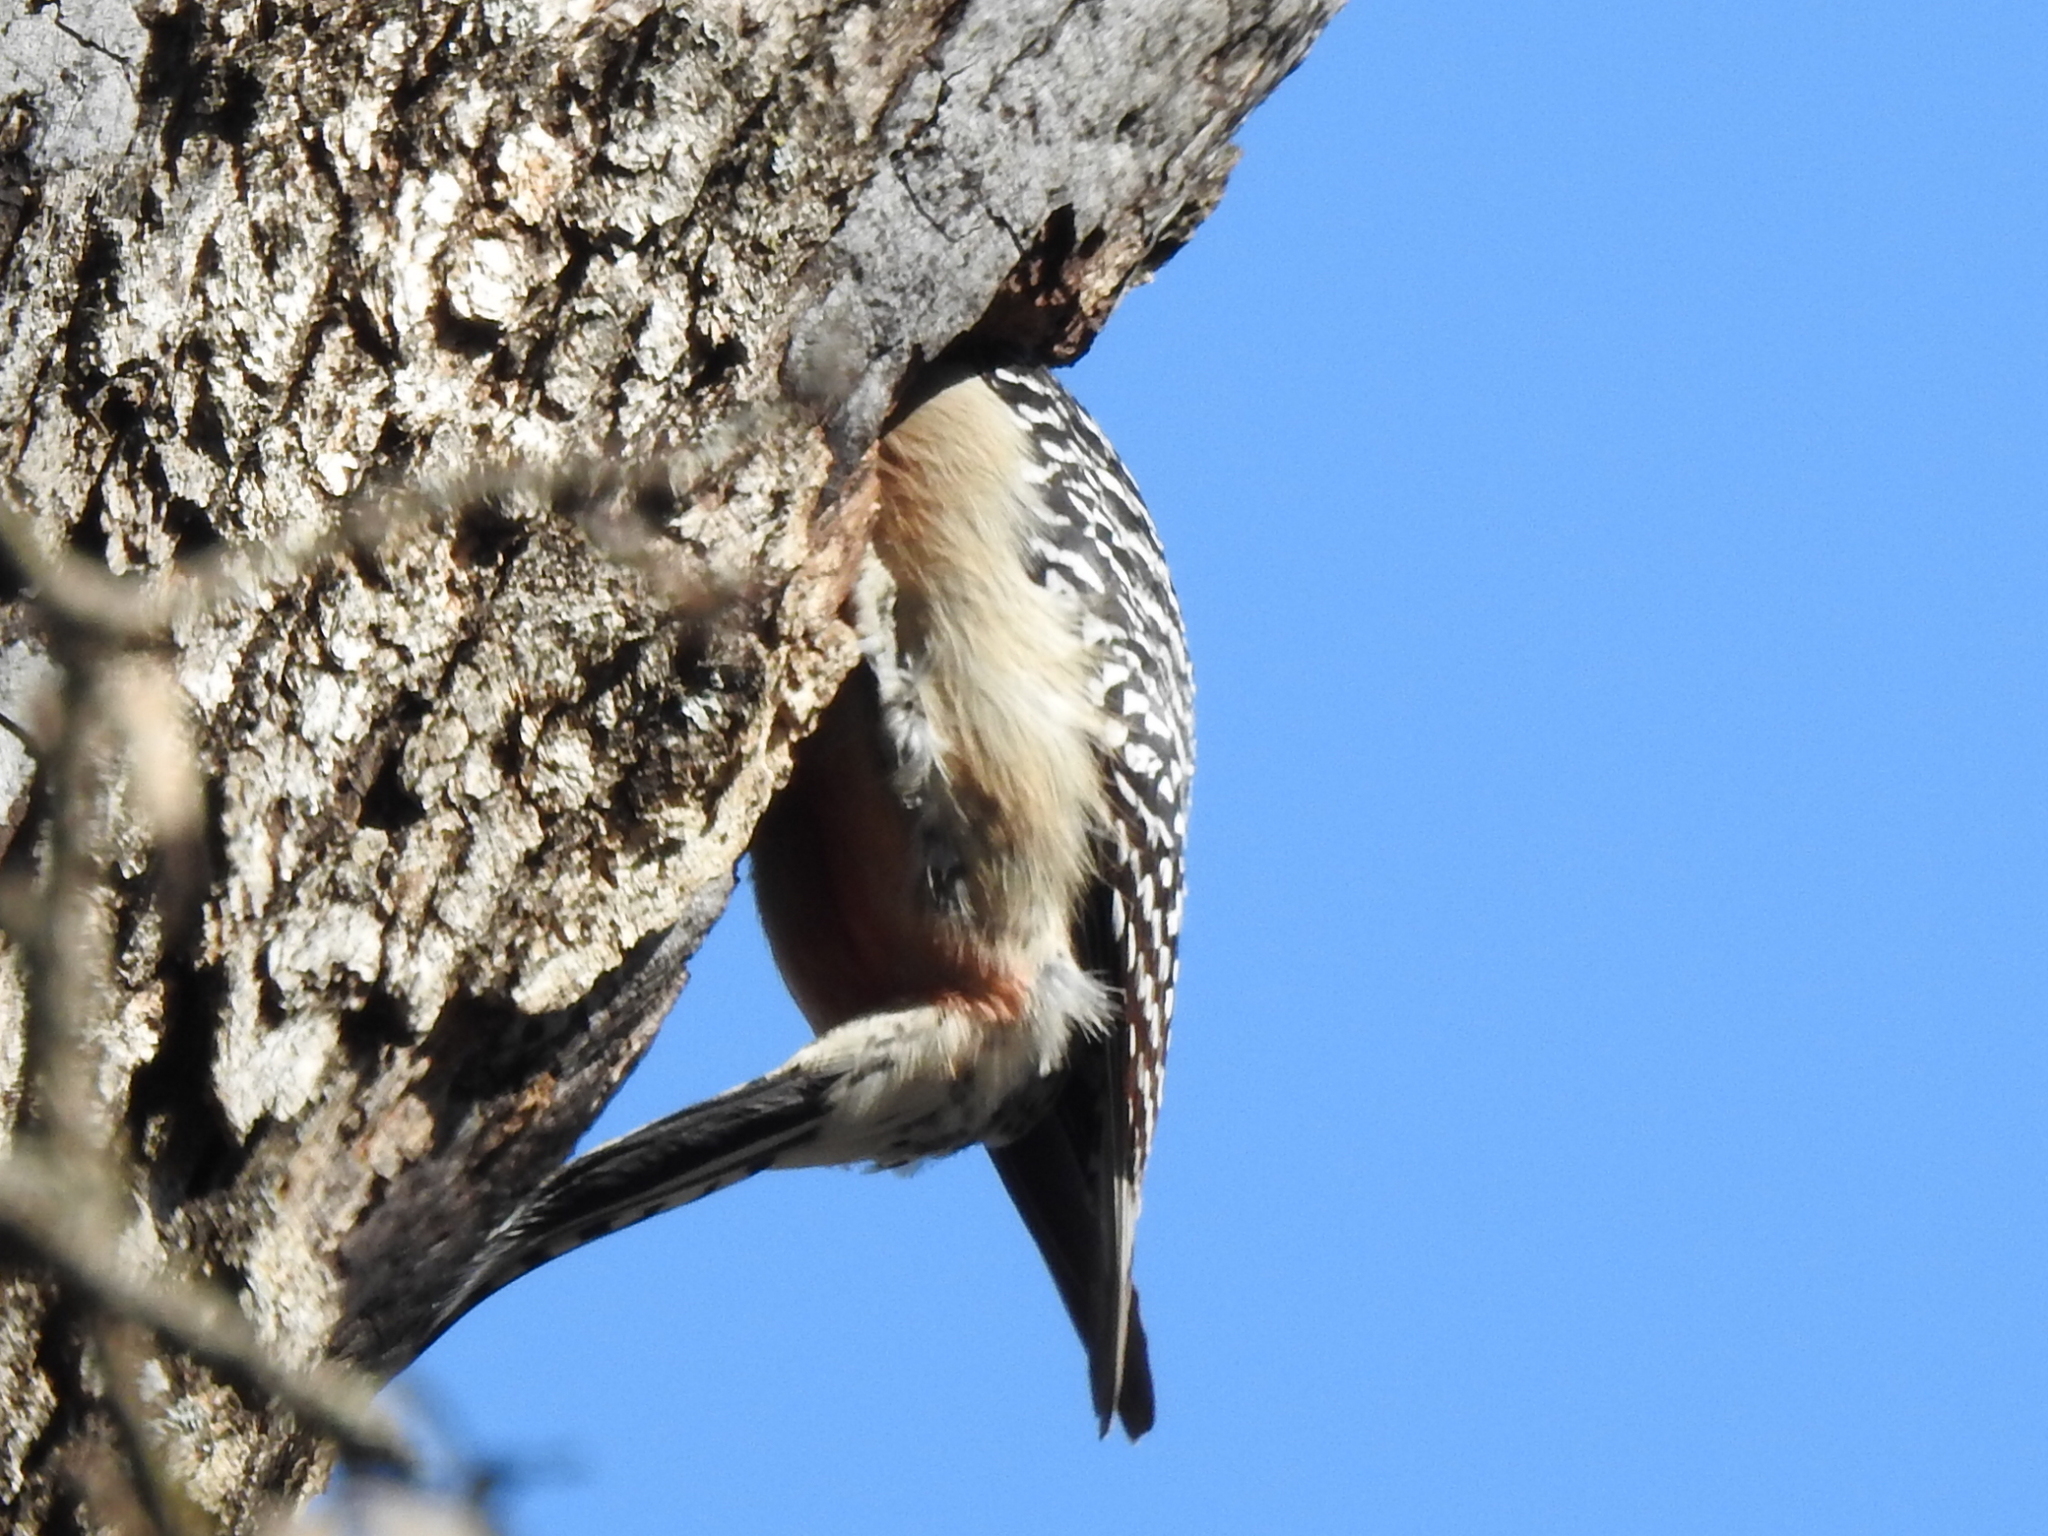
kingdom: Animalia
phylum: Chordata
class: Aves
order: Piciformes
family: Picidae
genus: Melanerpes
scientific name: Melanerpes carolinus
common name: Red-bellied woodpecker
